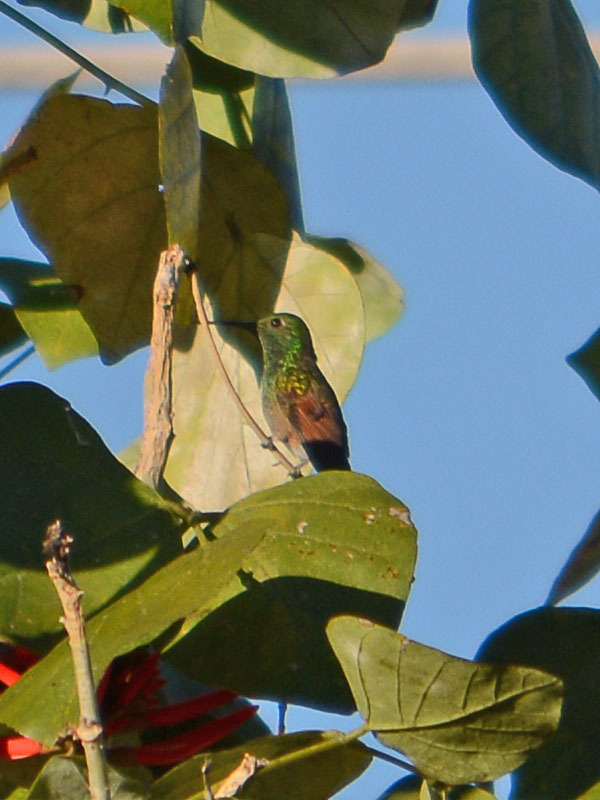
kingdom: Animalia
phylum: Chordata
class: Aves
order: Apodiformes
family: Trochilidae
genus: Saucerottia
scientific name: Saucerottia beryllina
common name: Berylline hummingbird
